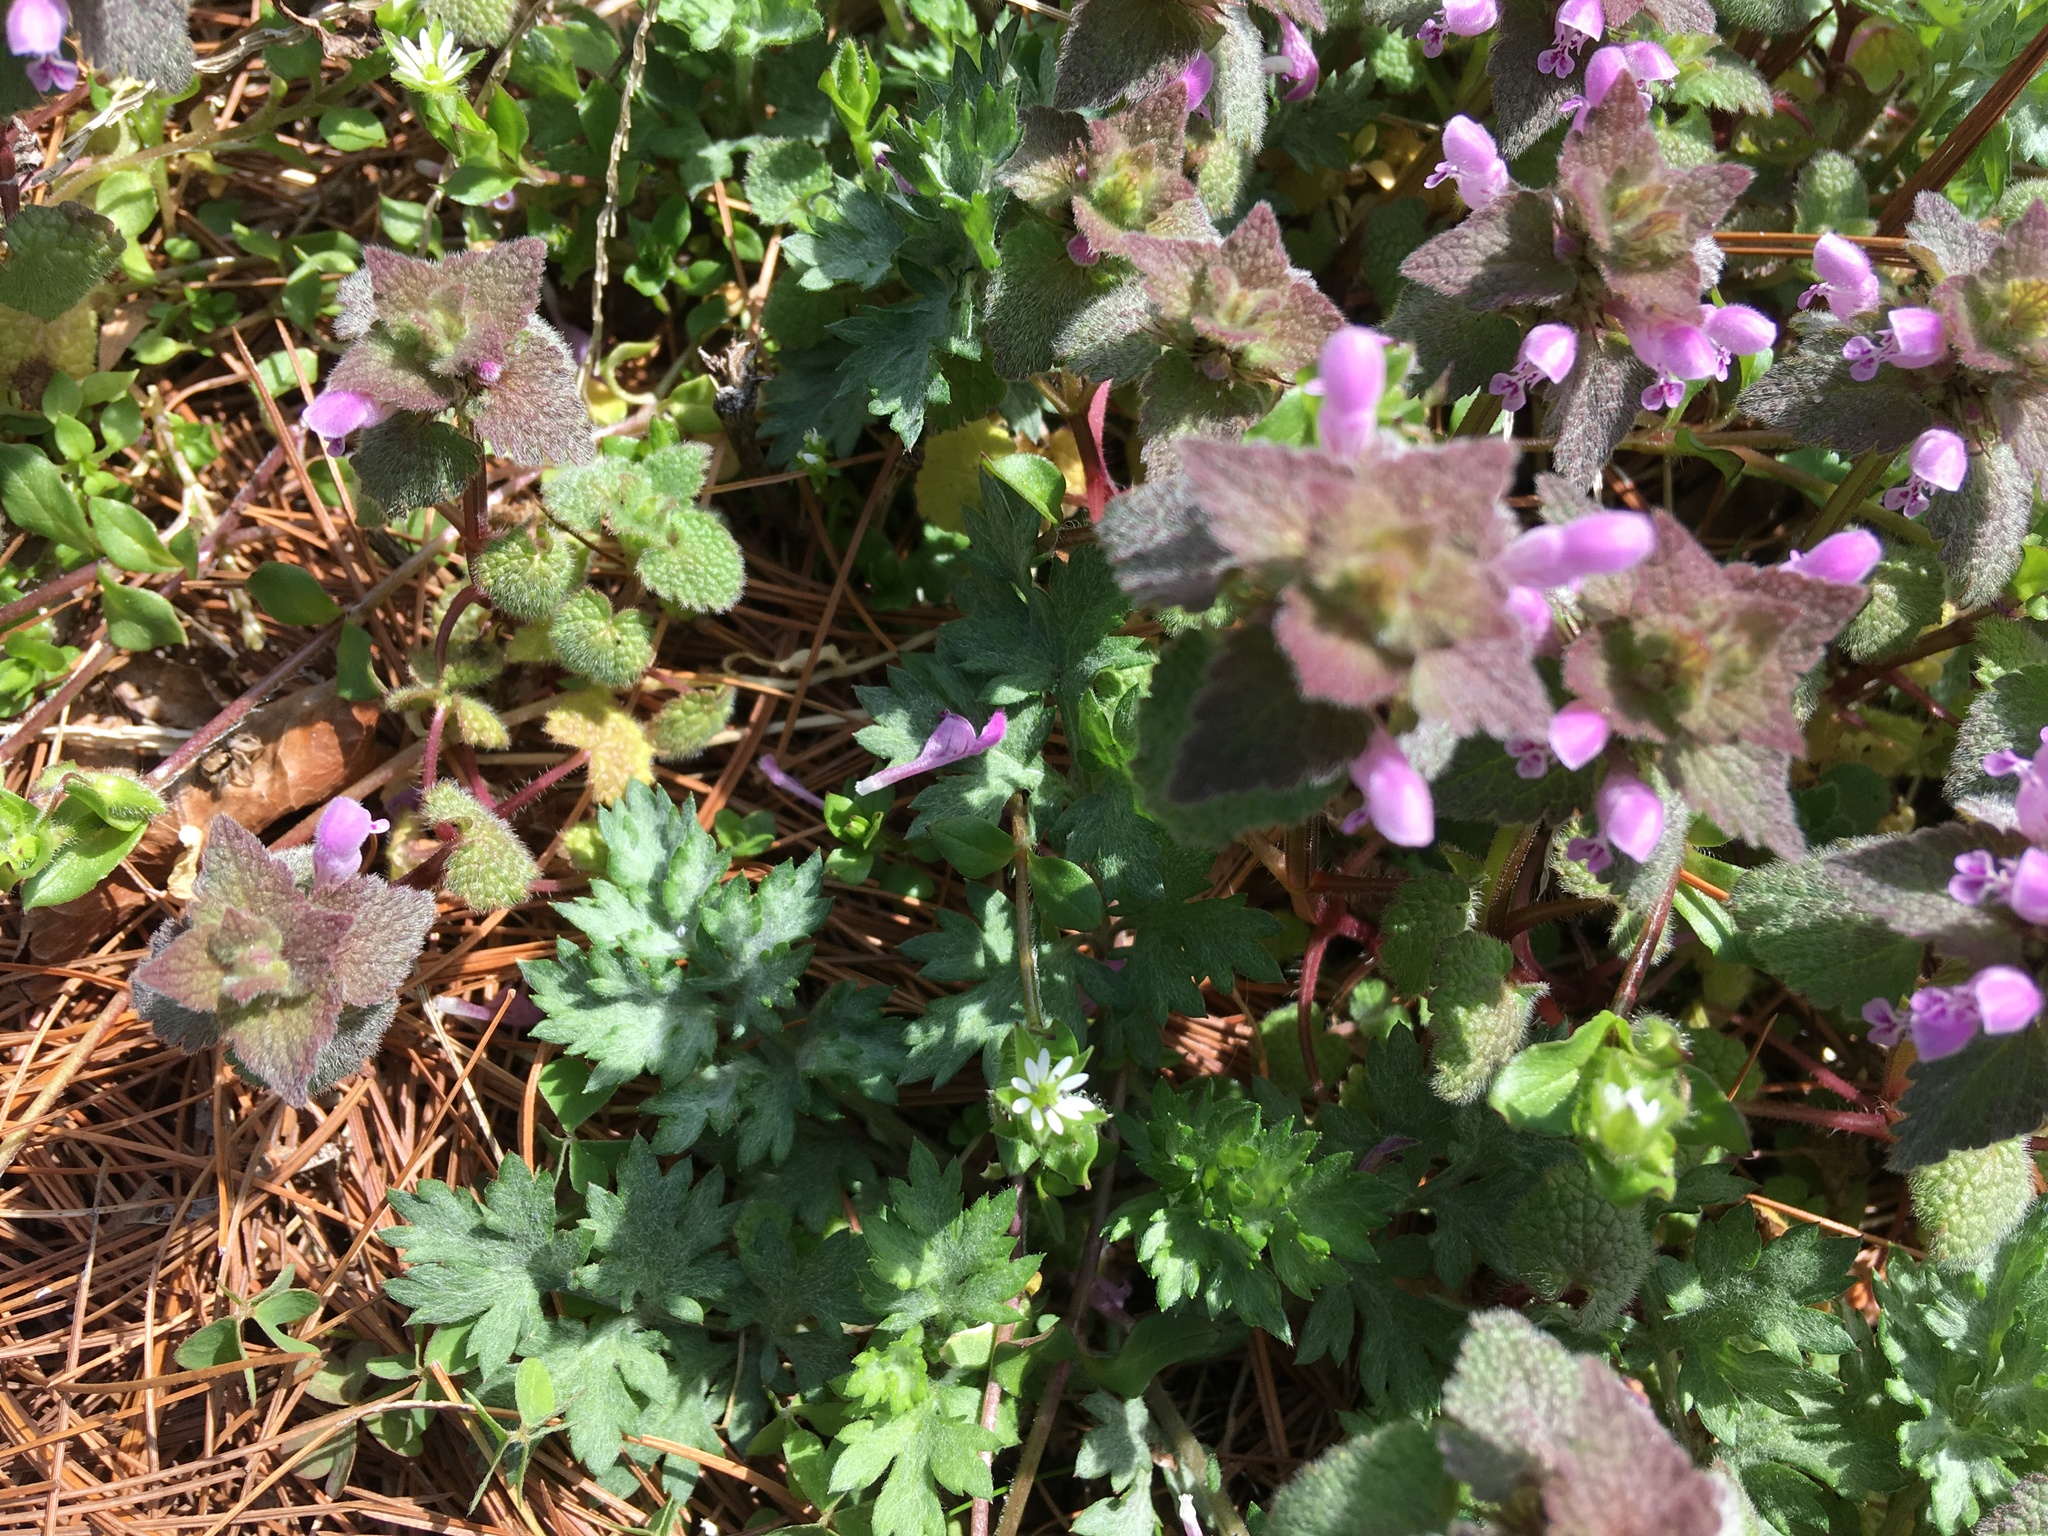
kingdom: Plantae
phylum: Tracheophyta
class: Magnoliopsida
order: Lamiales
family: Lamiaceae
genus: Lamium
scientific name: Lamium purpureum
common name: Red dead-nettle
